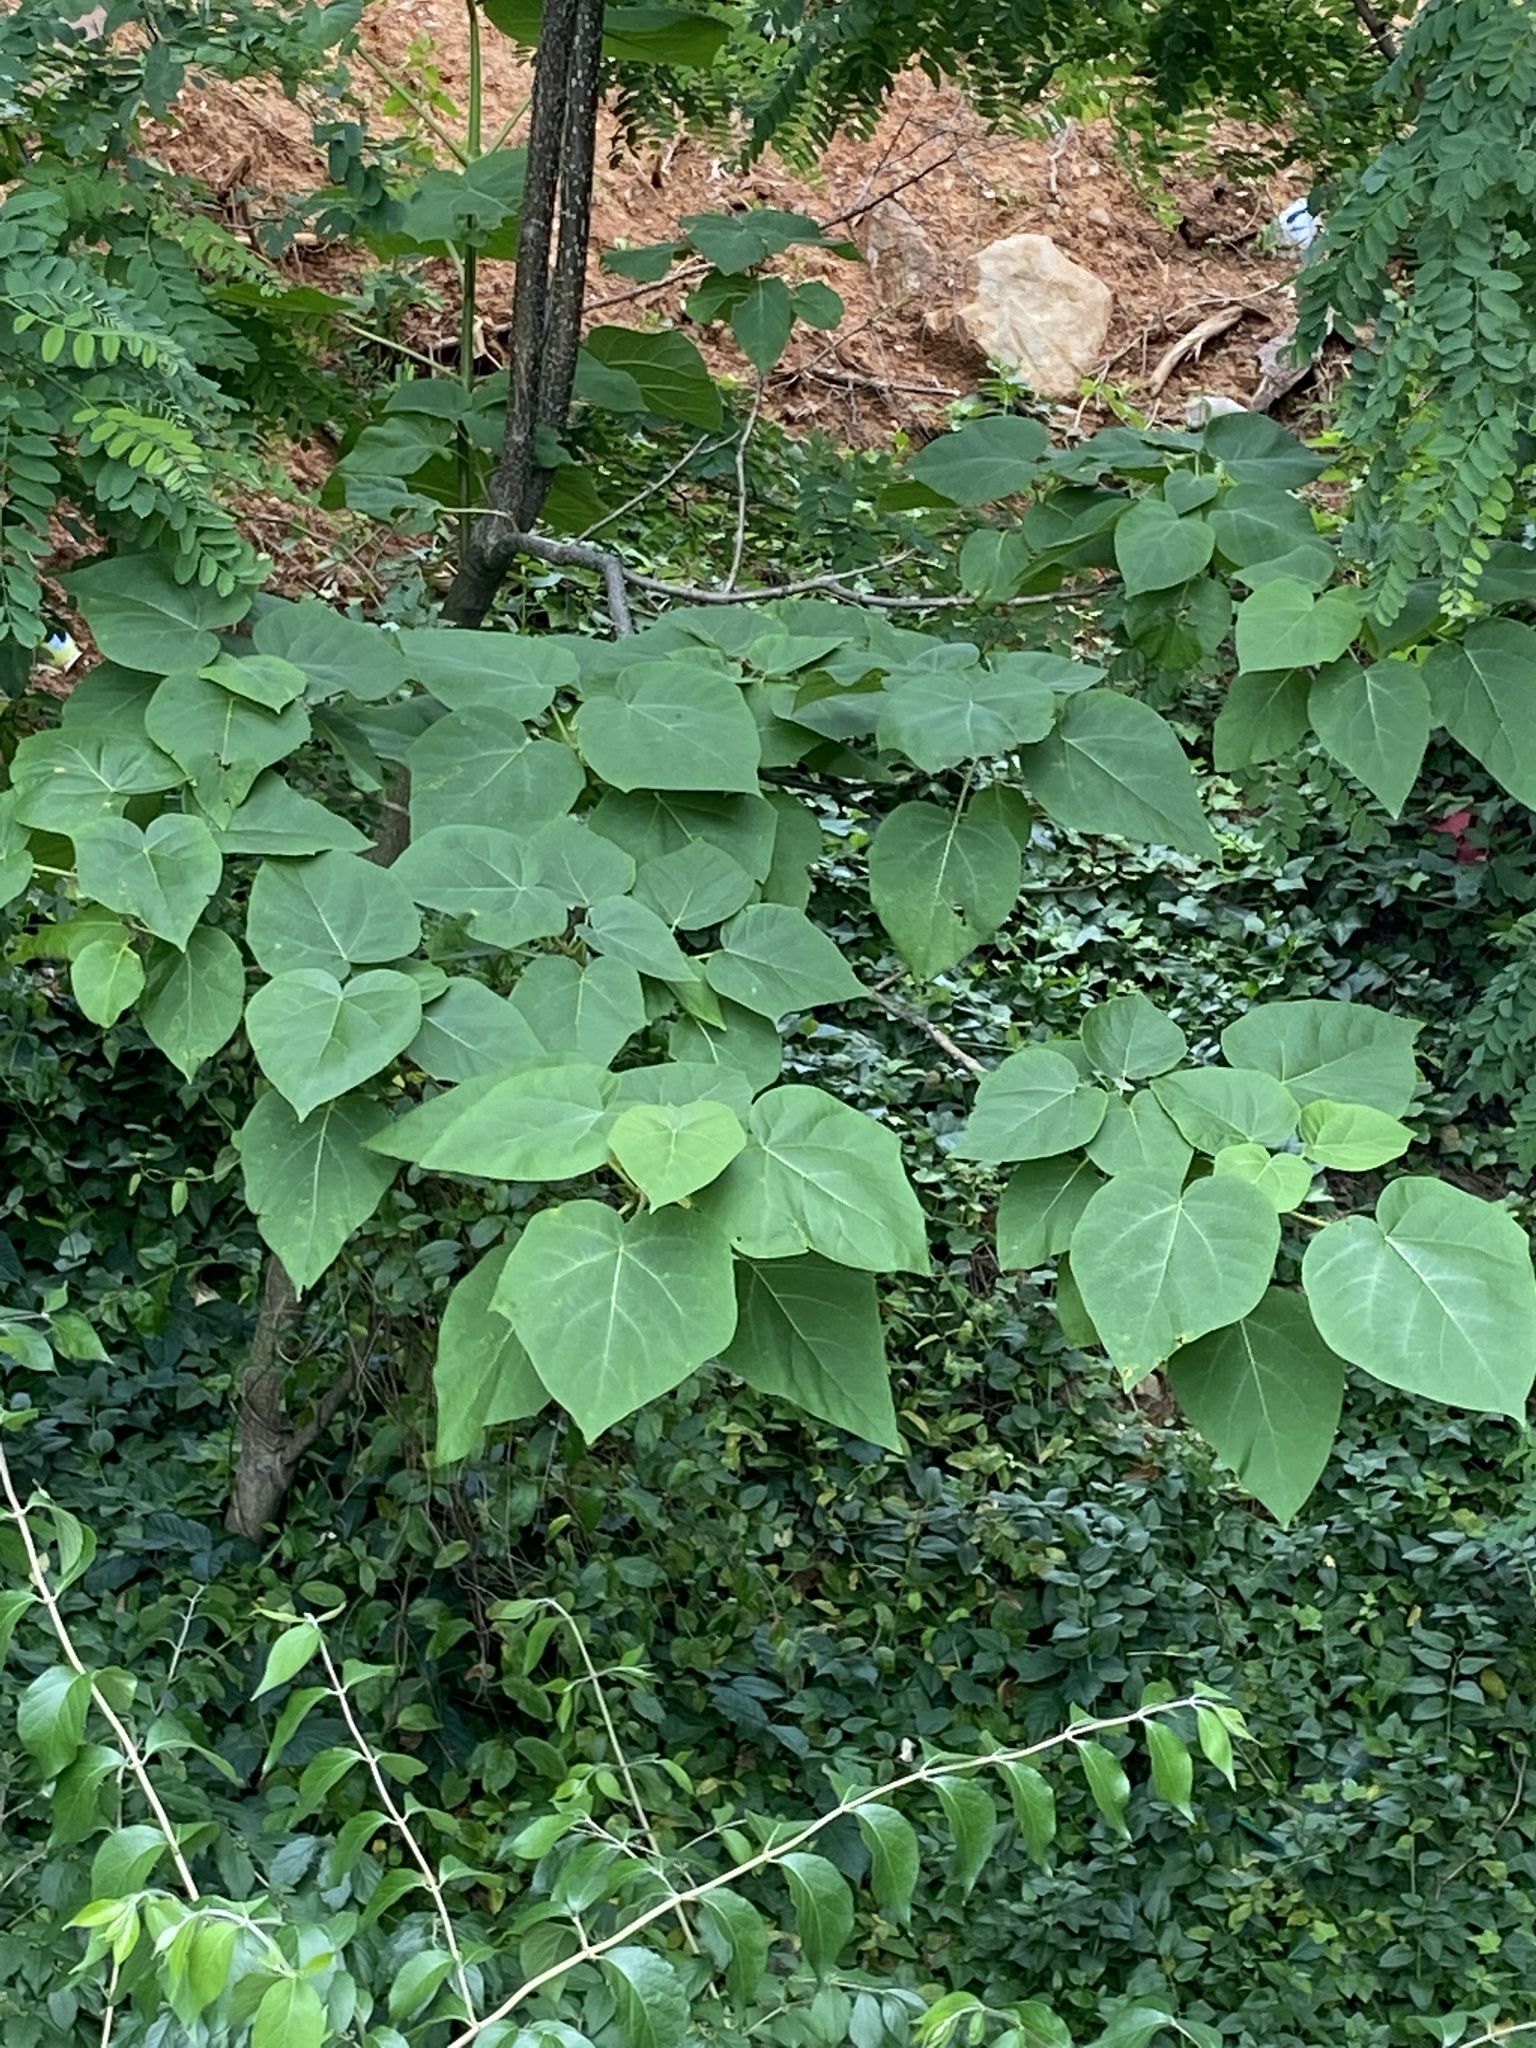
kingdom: Plantae
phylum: Tracheophyta
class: Magnoliopsida
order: Lamiales
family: Paulowniaceae
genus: Paulownia
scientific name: Paulownia tomentosa
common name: Foxglove-tree
